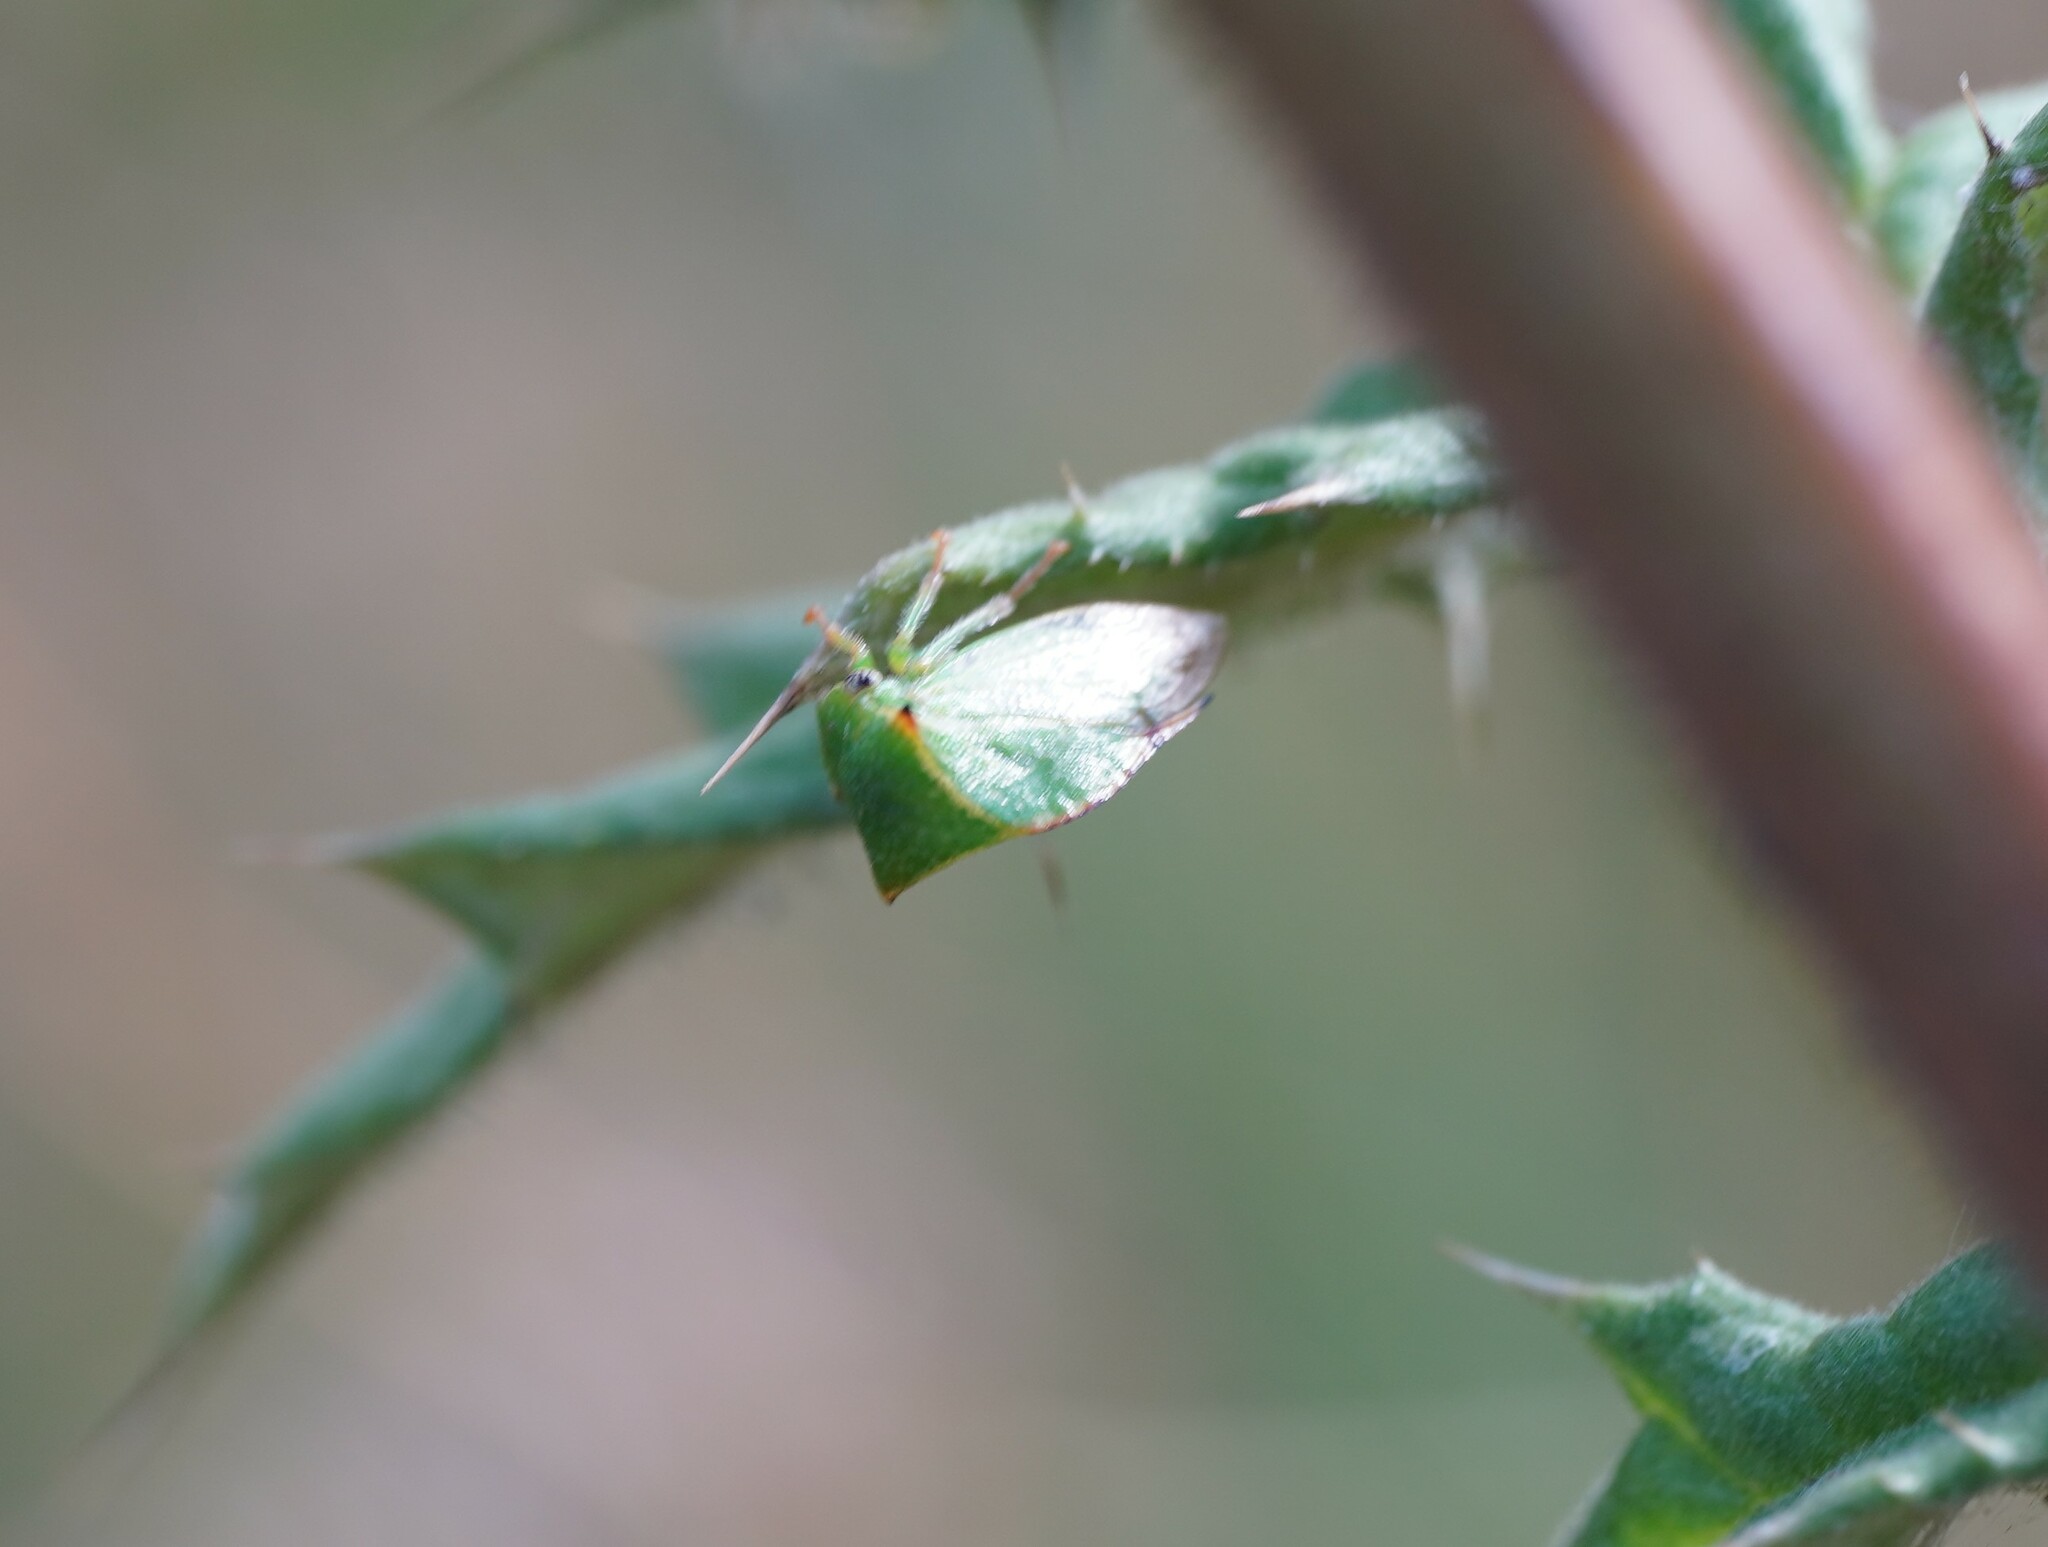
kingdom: Animalia
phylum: Arthropoda
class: Insecta
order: Hemiptera
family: Membracidae
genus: Stictocephala
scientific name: Stictocephala bisonia
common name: American buffalo treehopper
